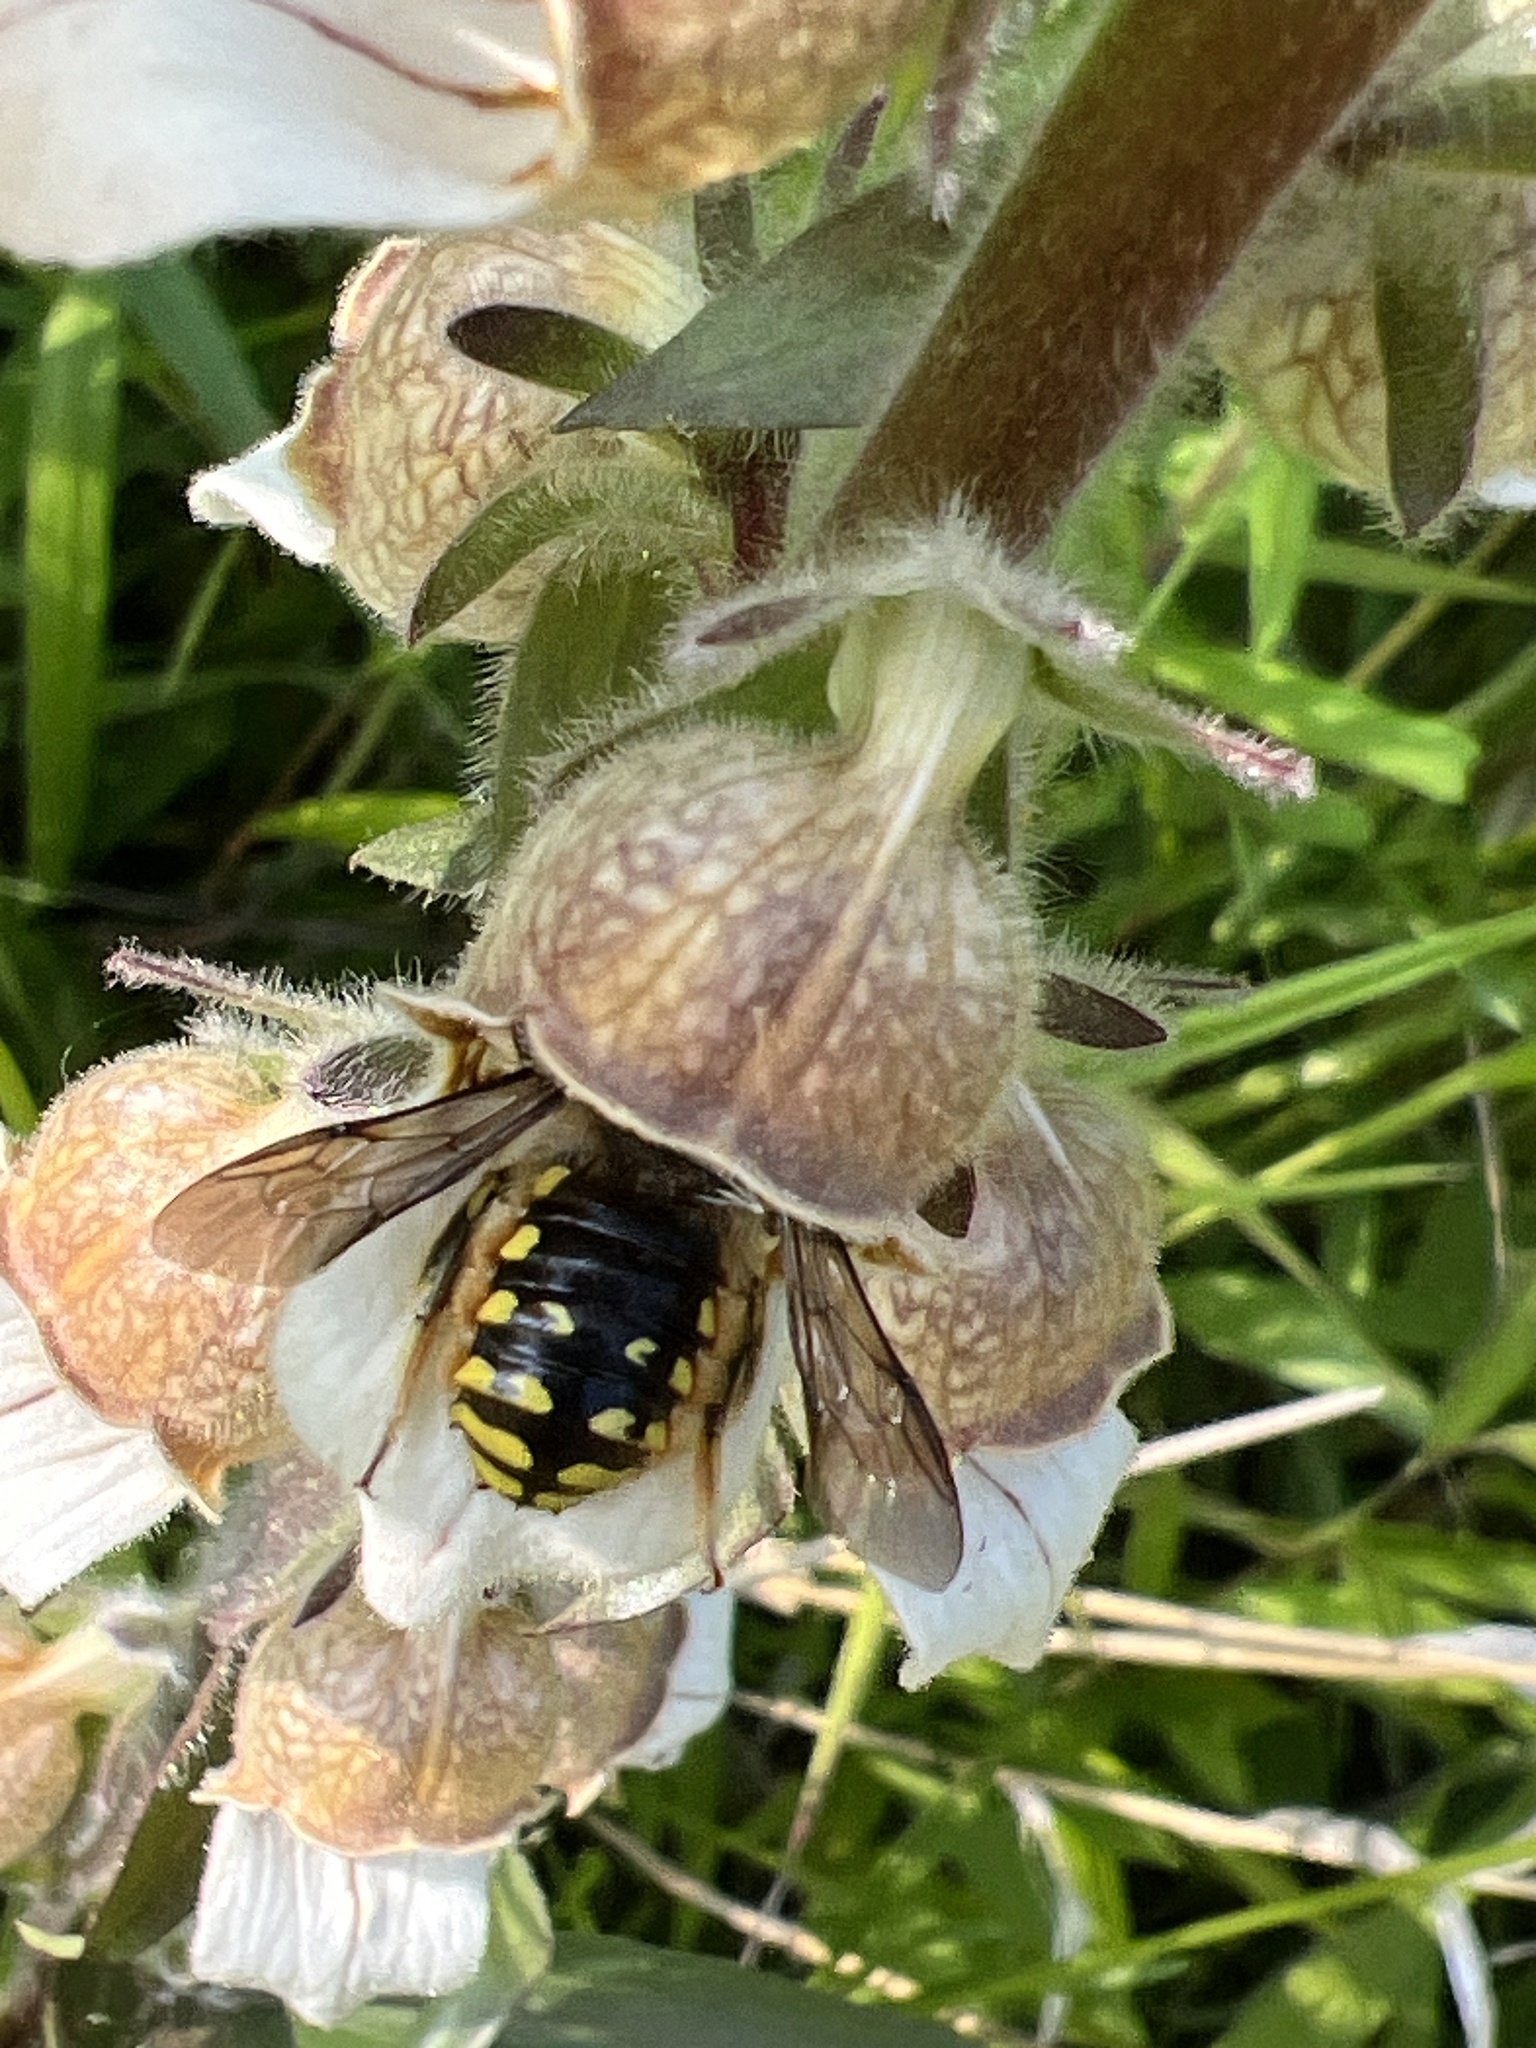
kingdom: Animalia
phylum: Arthropoda
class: Insecta
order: Hymenoptera
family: Megachilidae
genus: Anthidium
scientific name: Anthidium manicatum
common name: Wool carder bee
